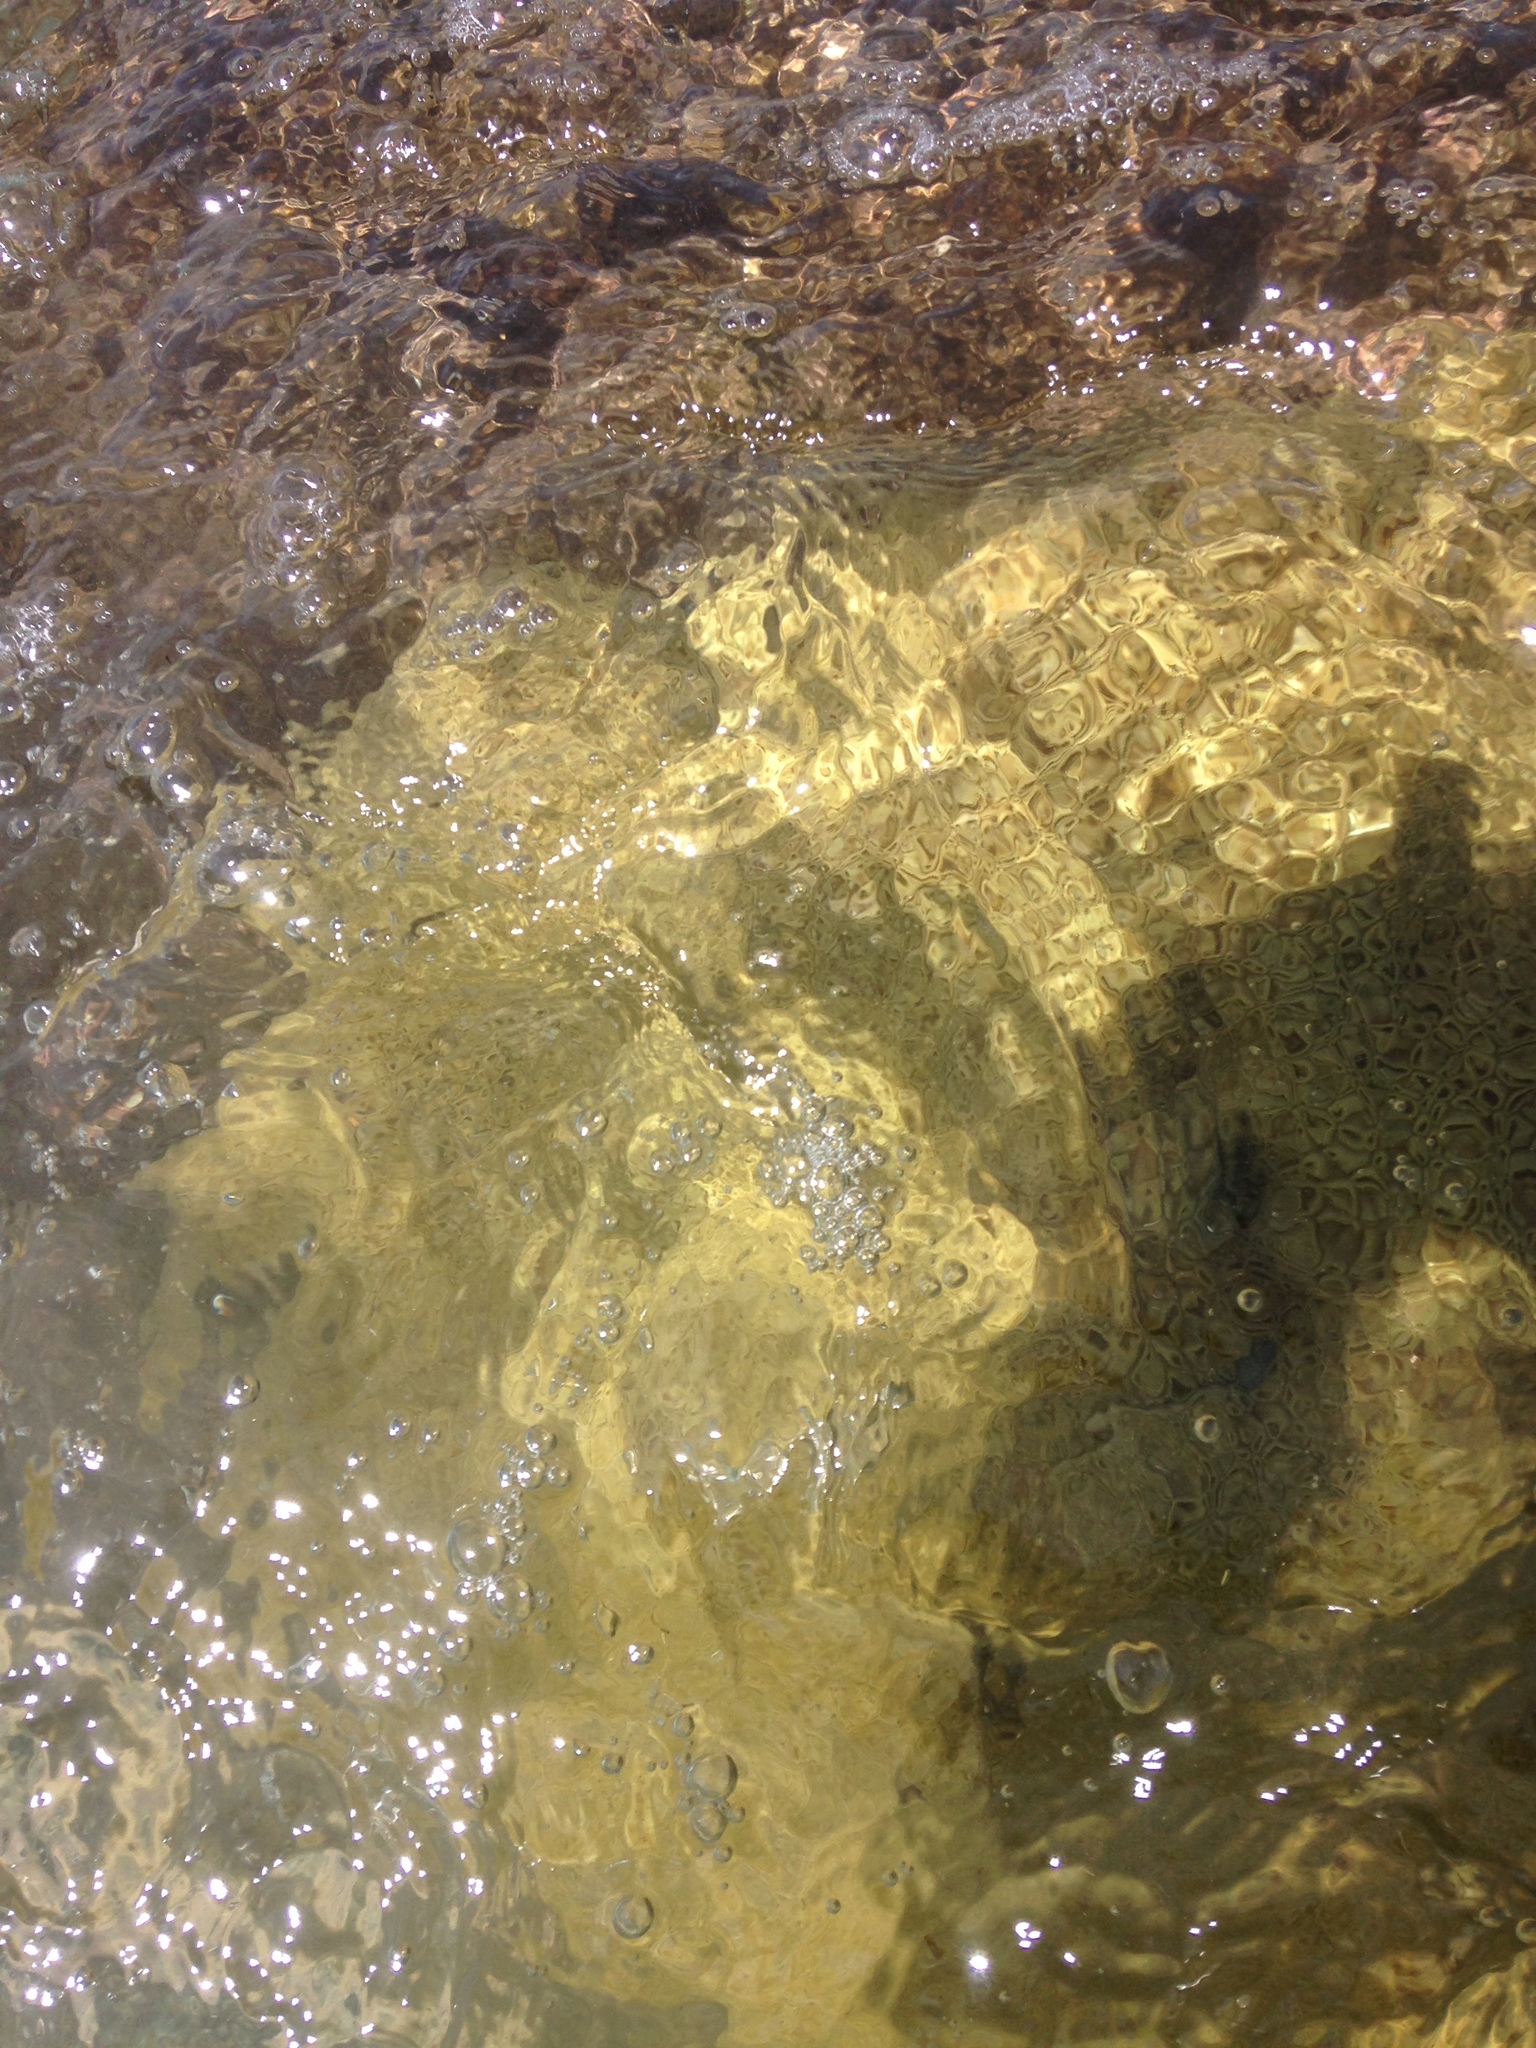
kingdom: Animalia
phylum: Cnidaria
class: Anthozoa
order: Zoantharia
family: Sphenopidae
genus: Palythoa
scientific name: Palythoa caribaeorum
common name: Encrusting colonial anemone
